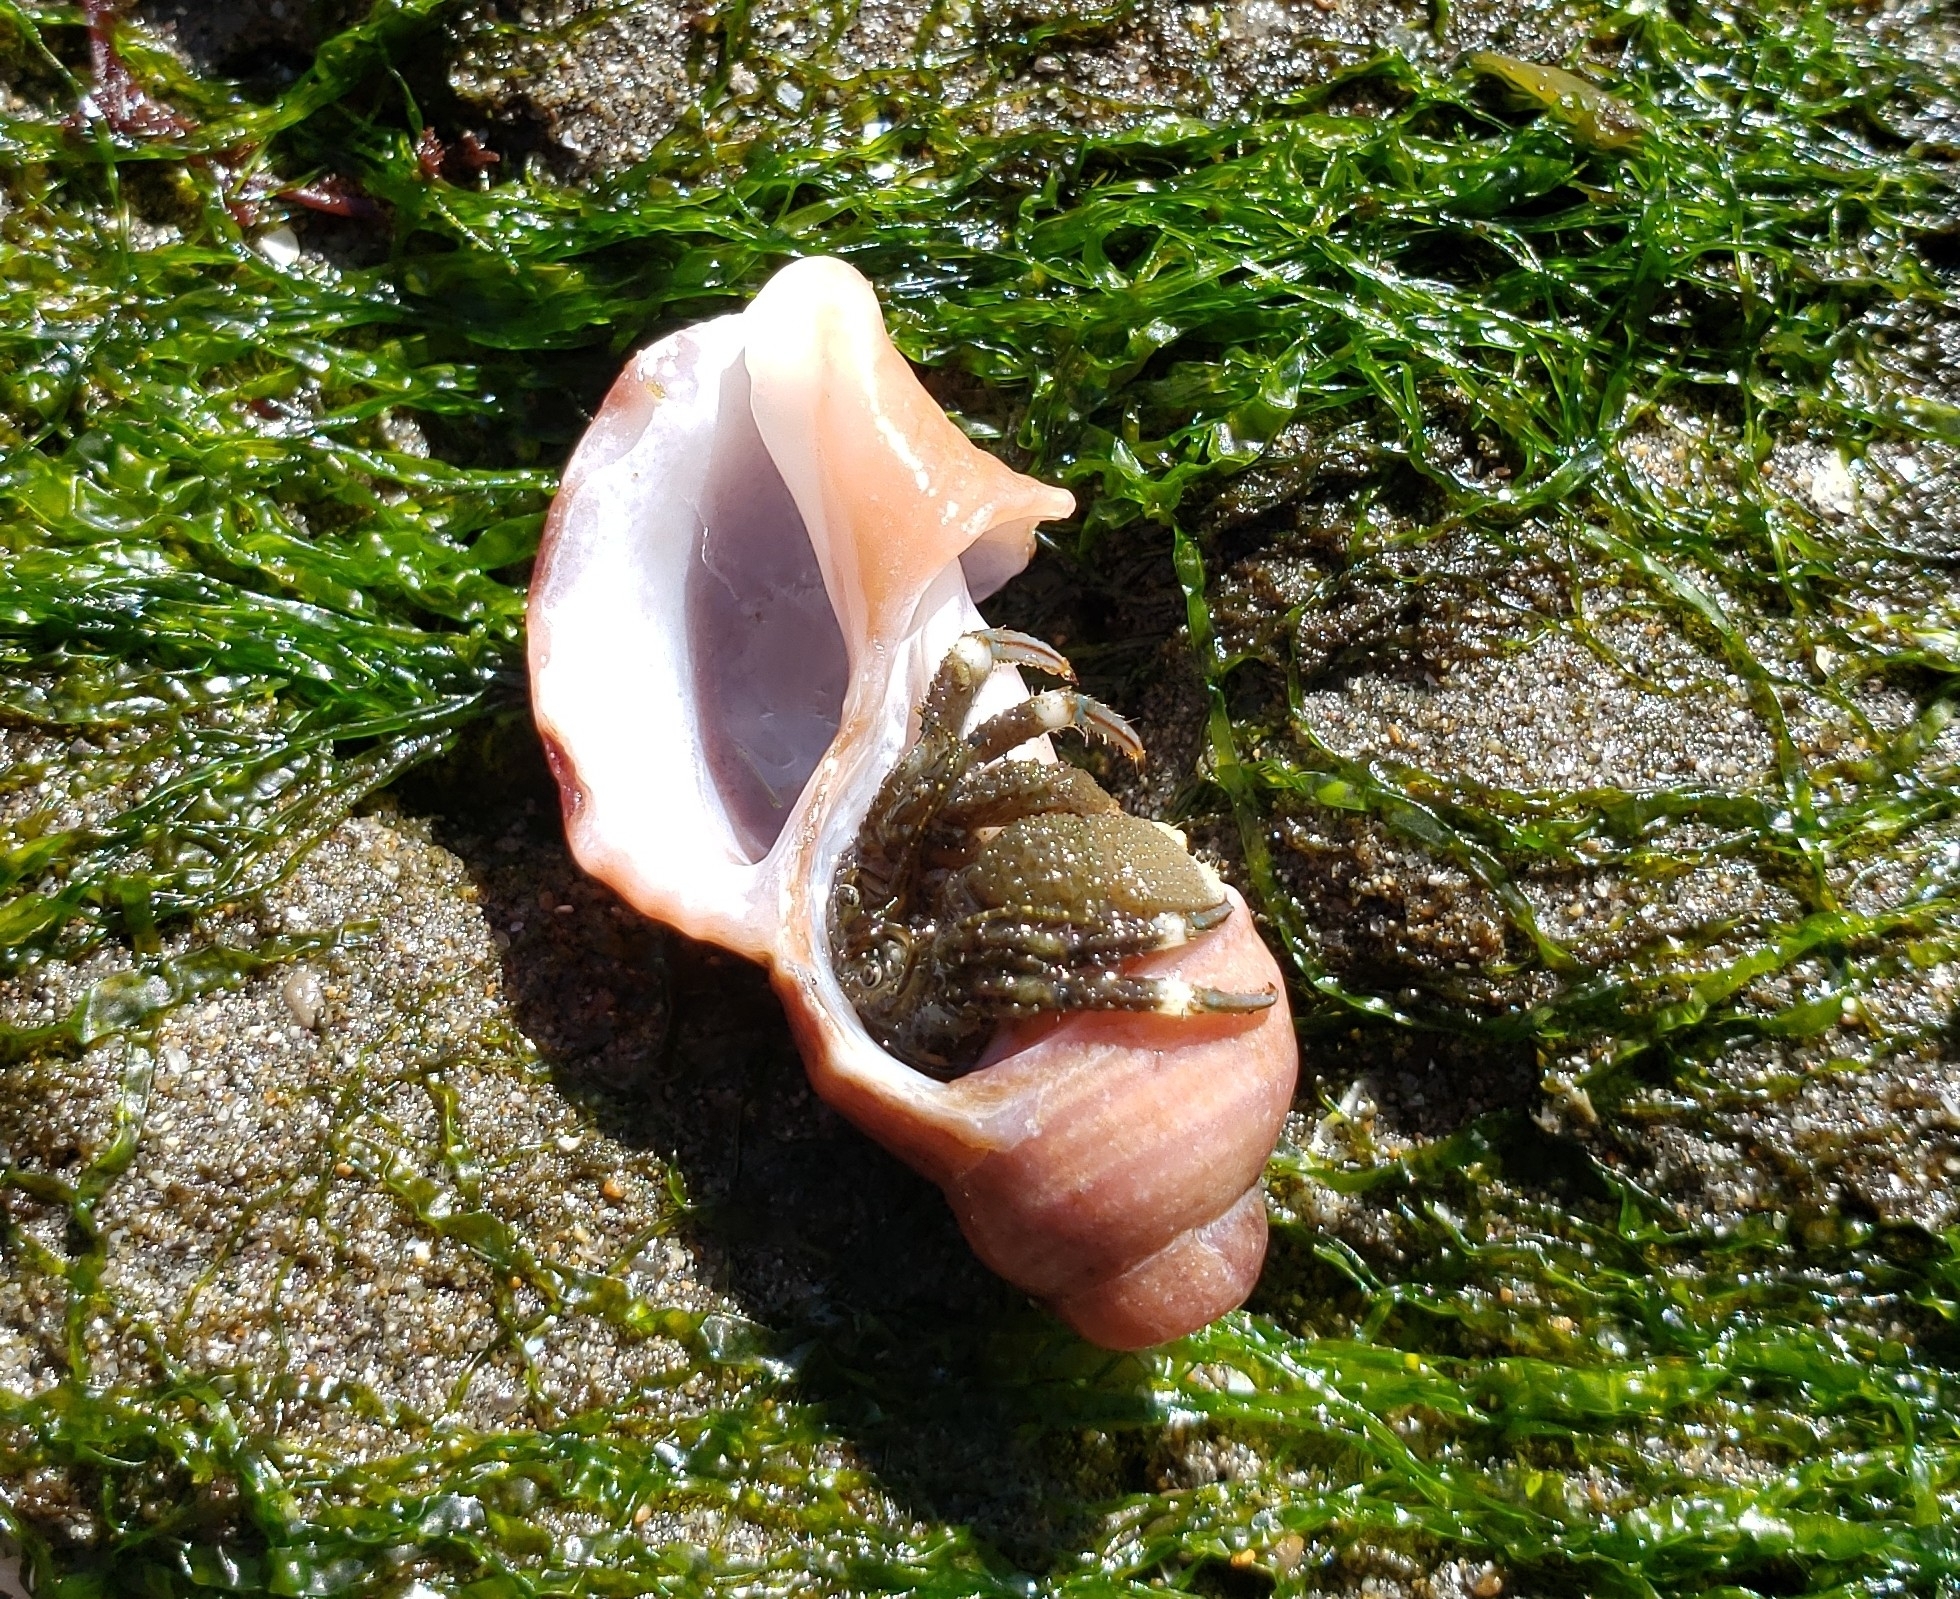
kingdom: Animalia
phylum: Arthropoda
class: Malacostraca
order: Decapoda
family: Paguridae
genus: Pagurus
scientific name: Pagurus hirsutiusculus
